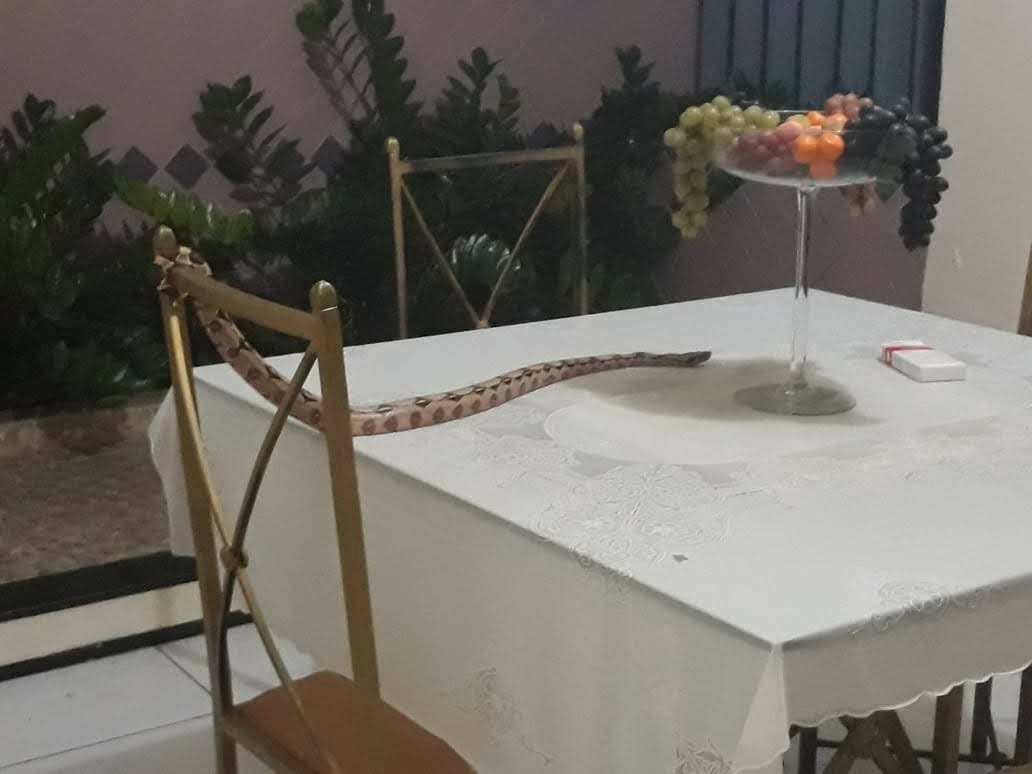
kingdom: Animalia
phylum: Chordata
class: Squamata
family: Boidae
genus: Boa
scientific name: Boa constrictor
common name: Boa constrictor
